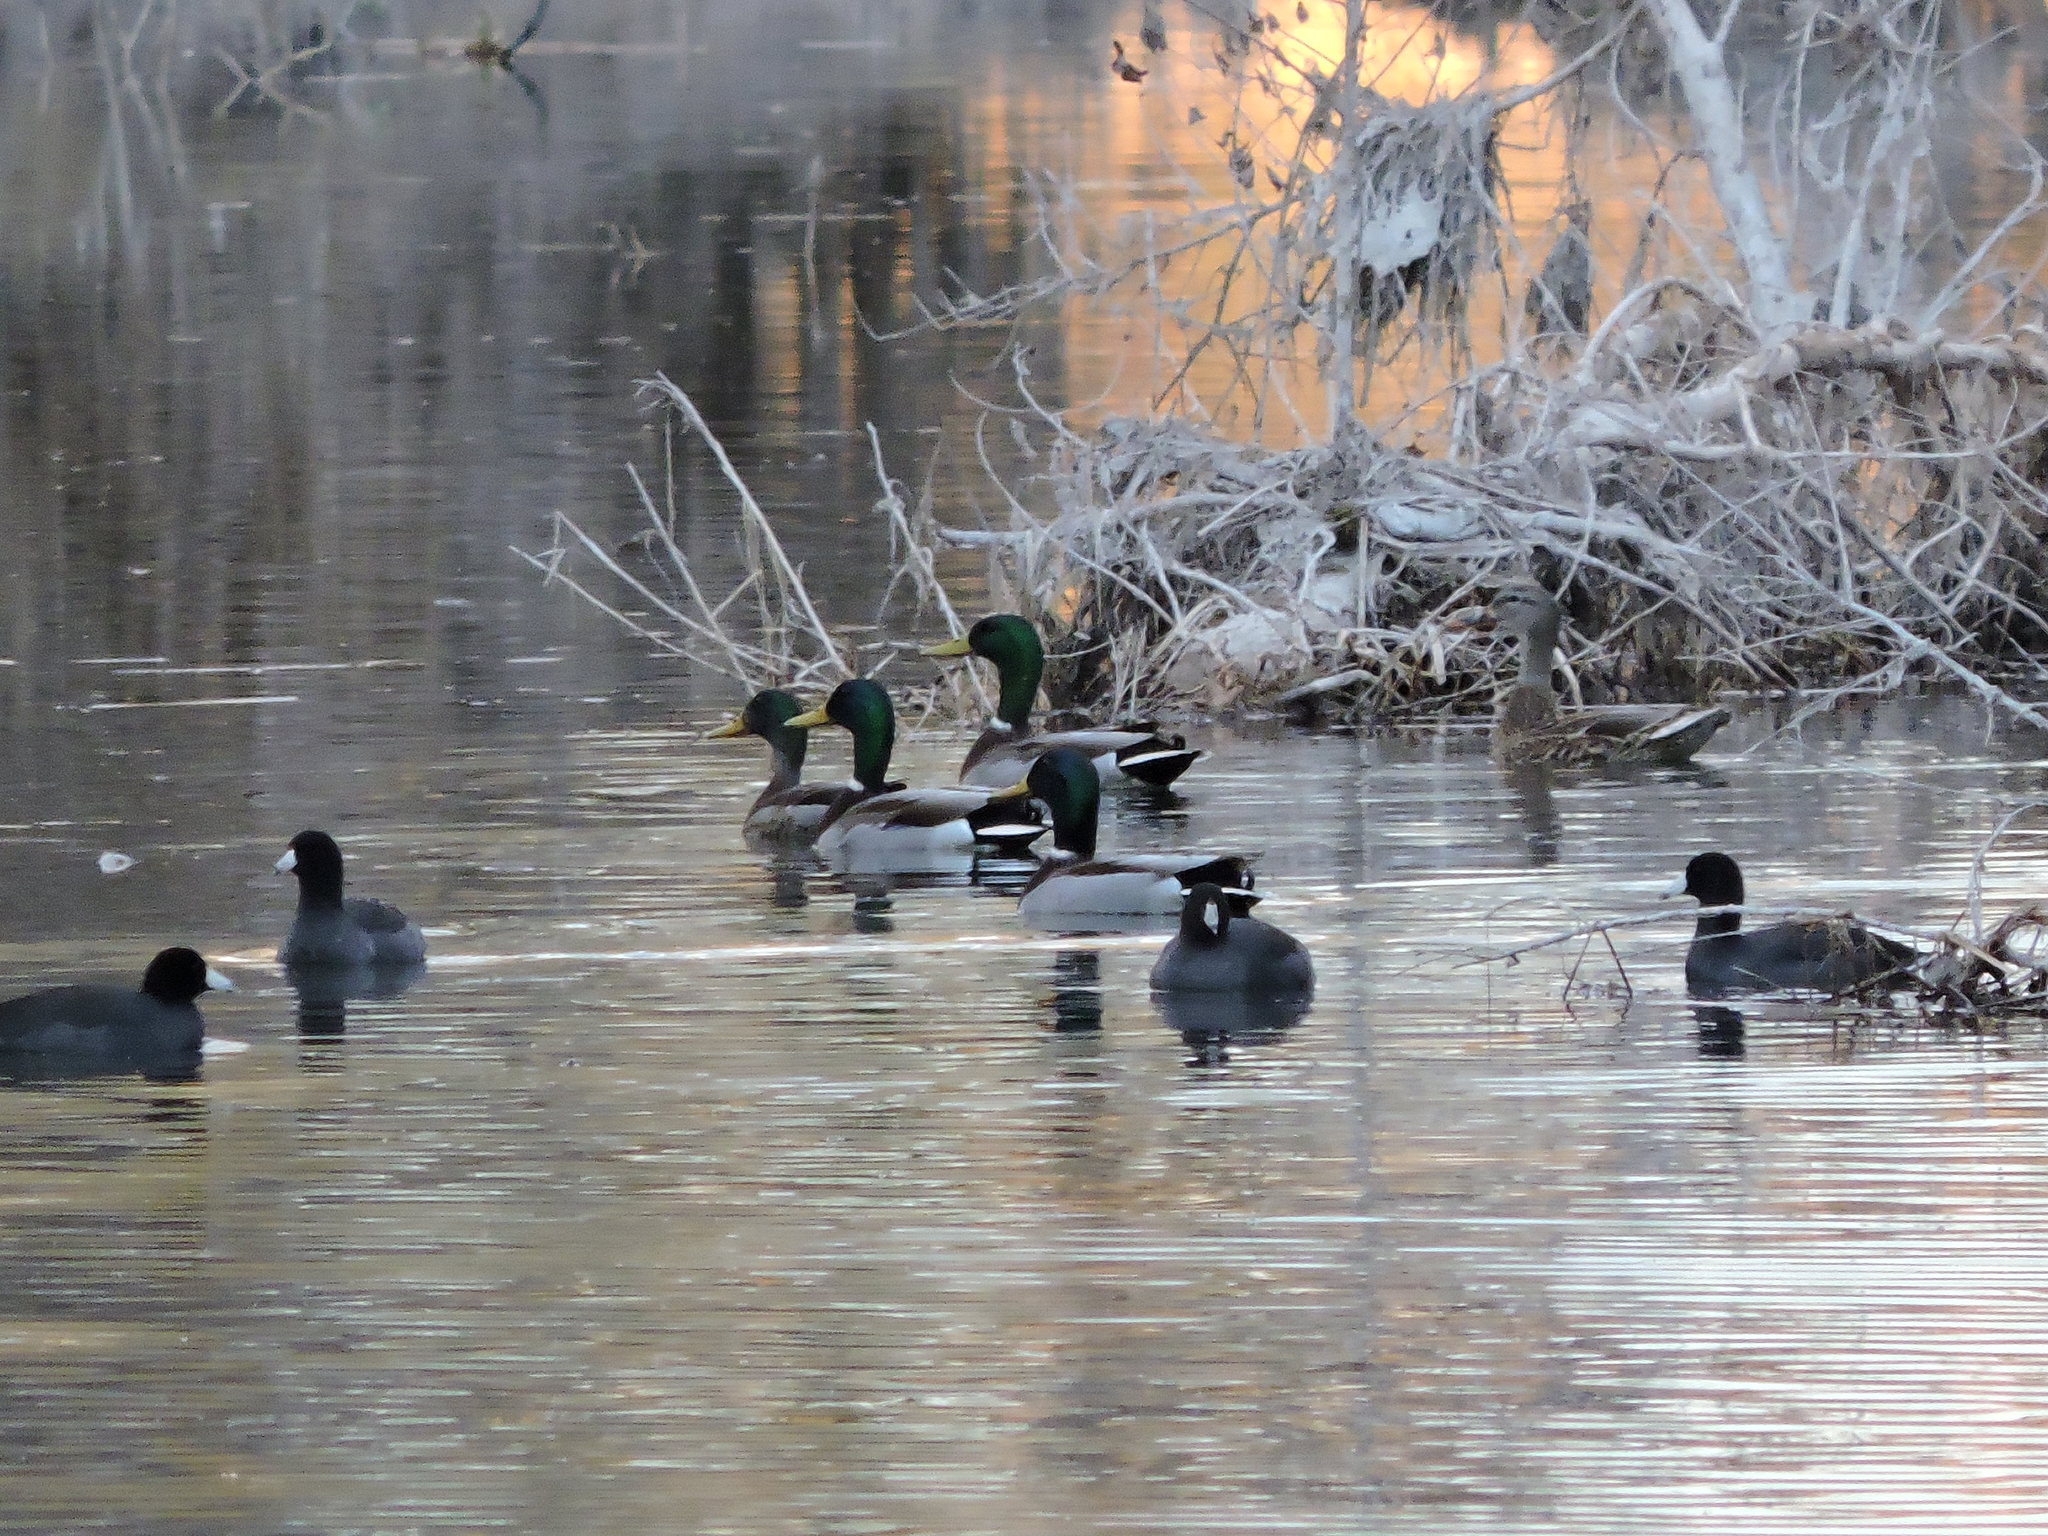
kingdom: Animalia
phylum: Chordata
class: Aves
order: Anseriformes
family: Anatidae
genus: Anas
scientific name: Anas platyrhynchos
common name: Mallard
